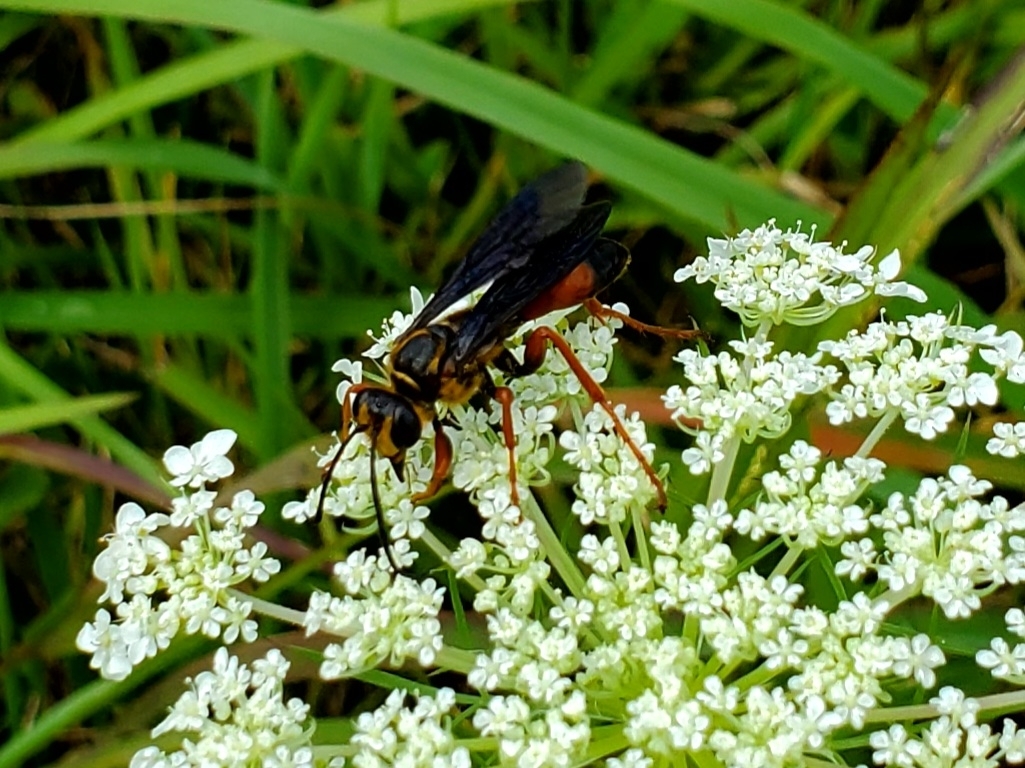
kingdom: Animalia
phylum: Arthropoda
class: Insecta
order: Hymenoptera
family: Sphecidae
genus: Sphex
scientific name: Sphex ichneumoneus
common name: Great golden digger wasp
